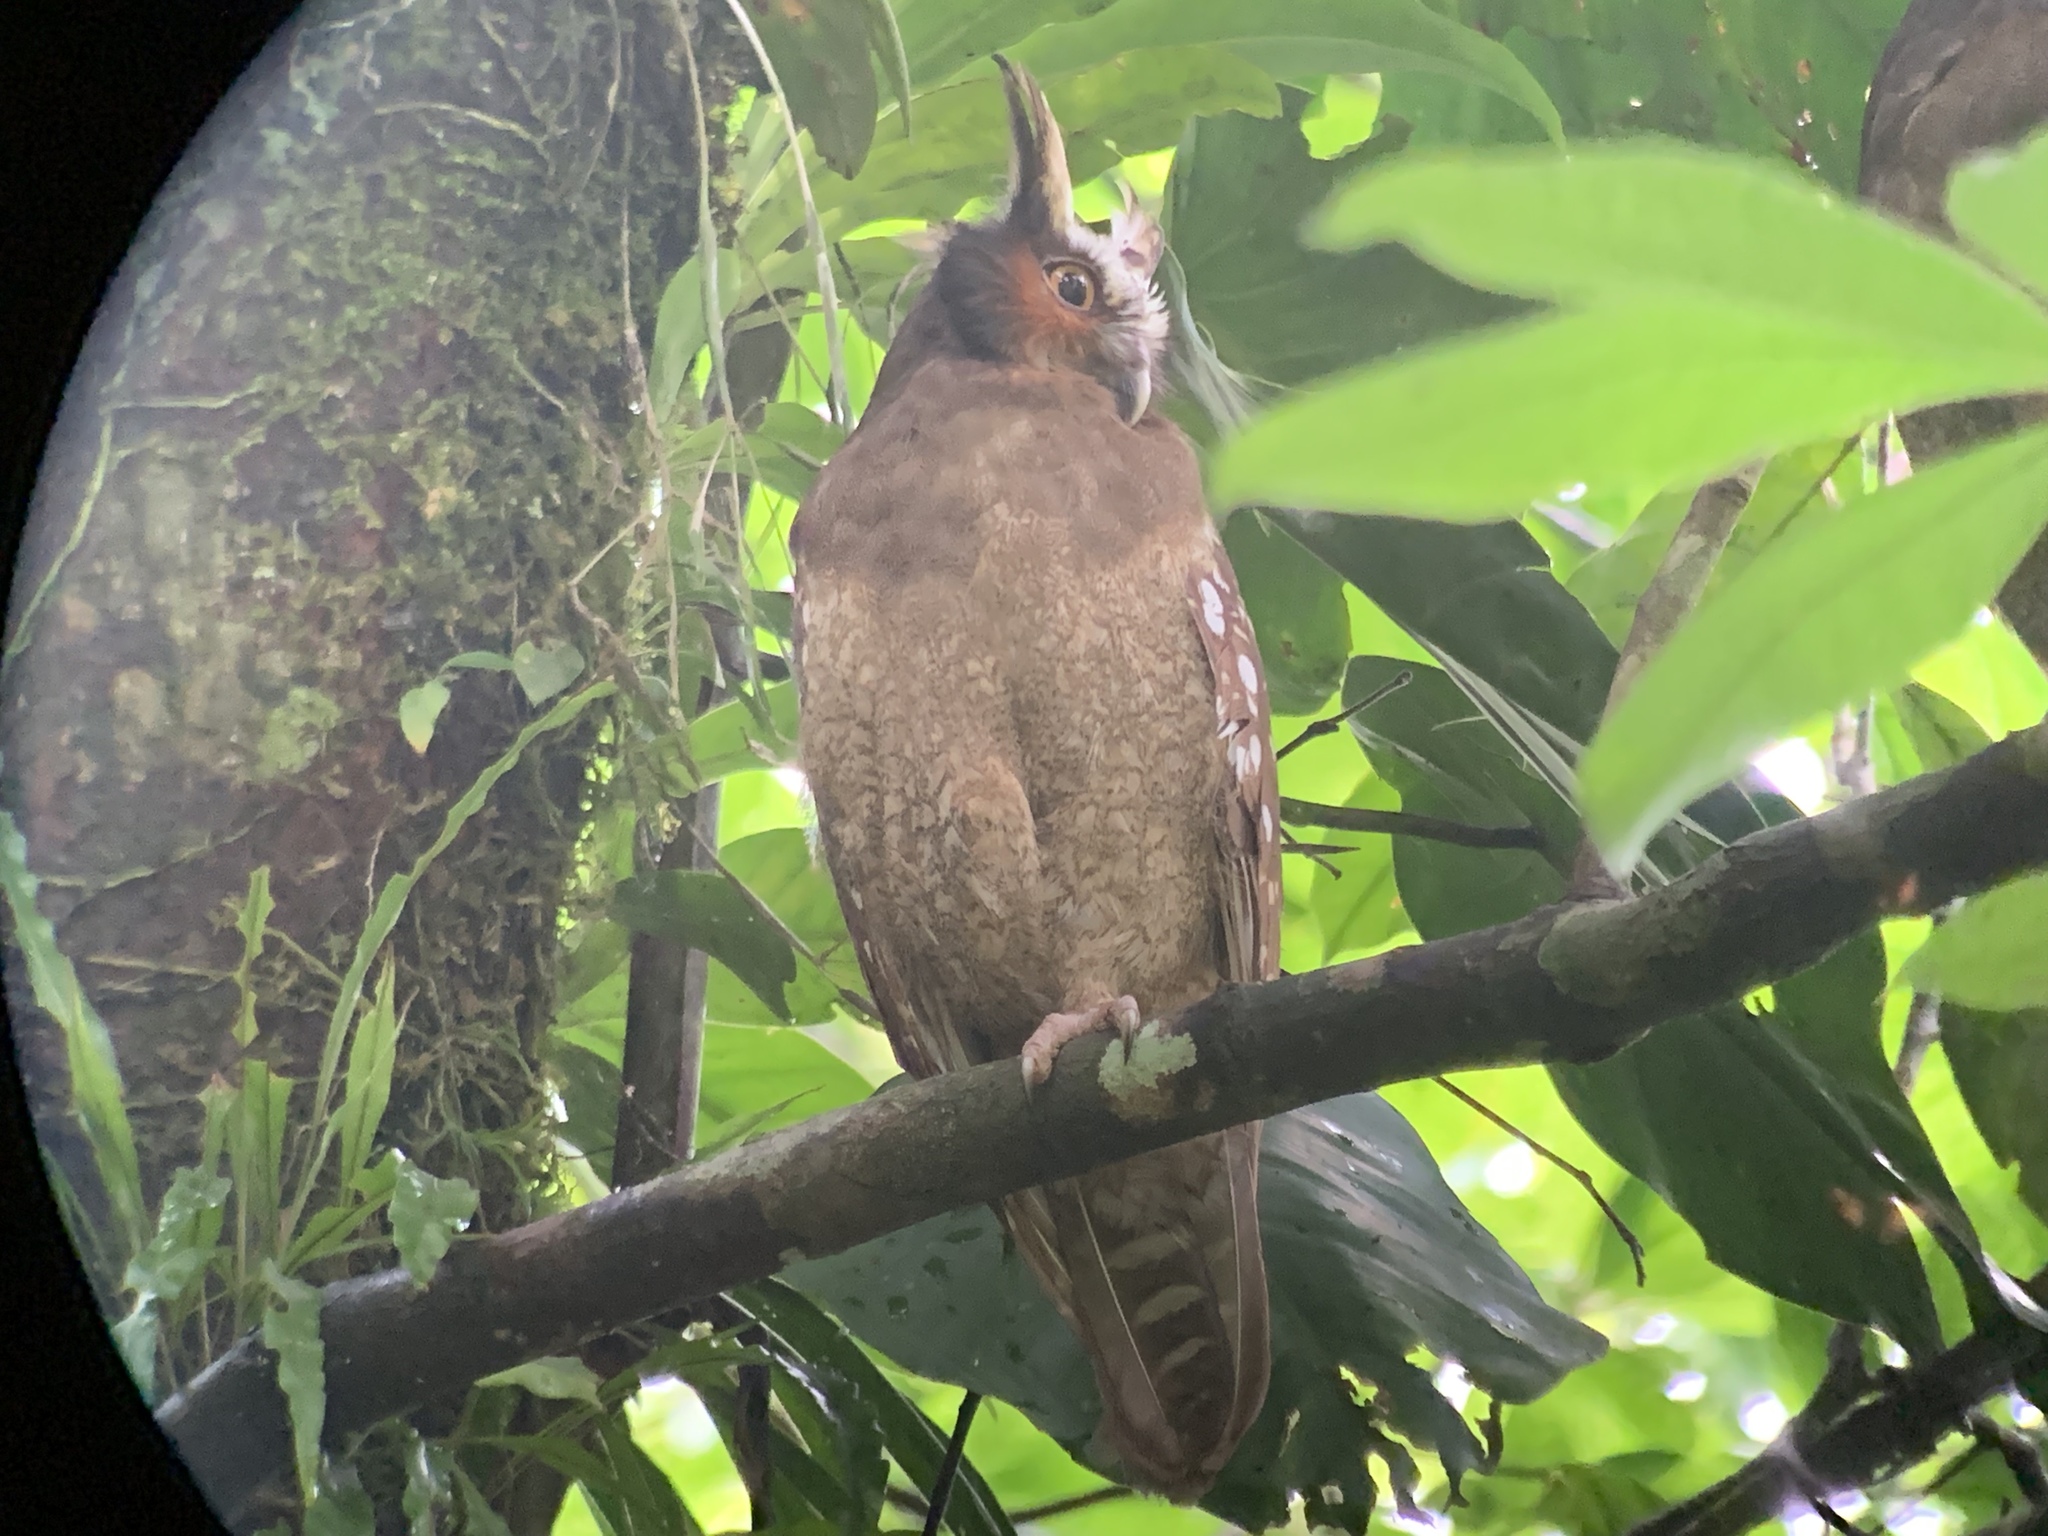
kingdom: Animalia
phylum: Chordata
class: Aves
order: Strigiformes
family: Strigidae
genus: Lophostrix
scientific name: Lophostrix cristata
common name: Crested owl
